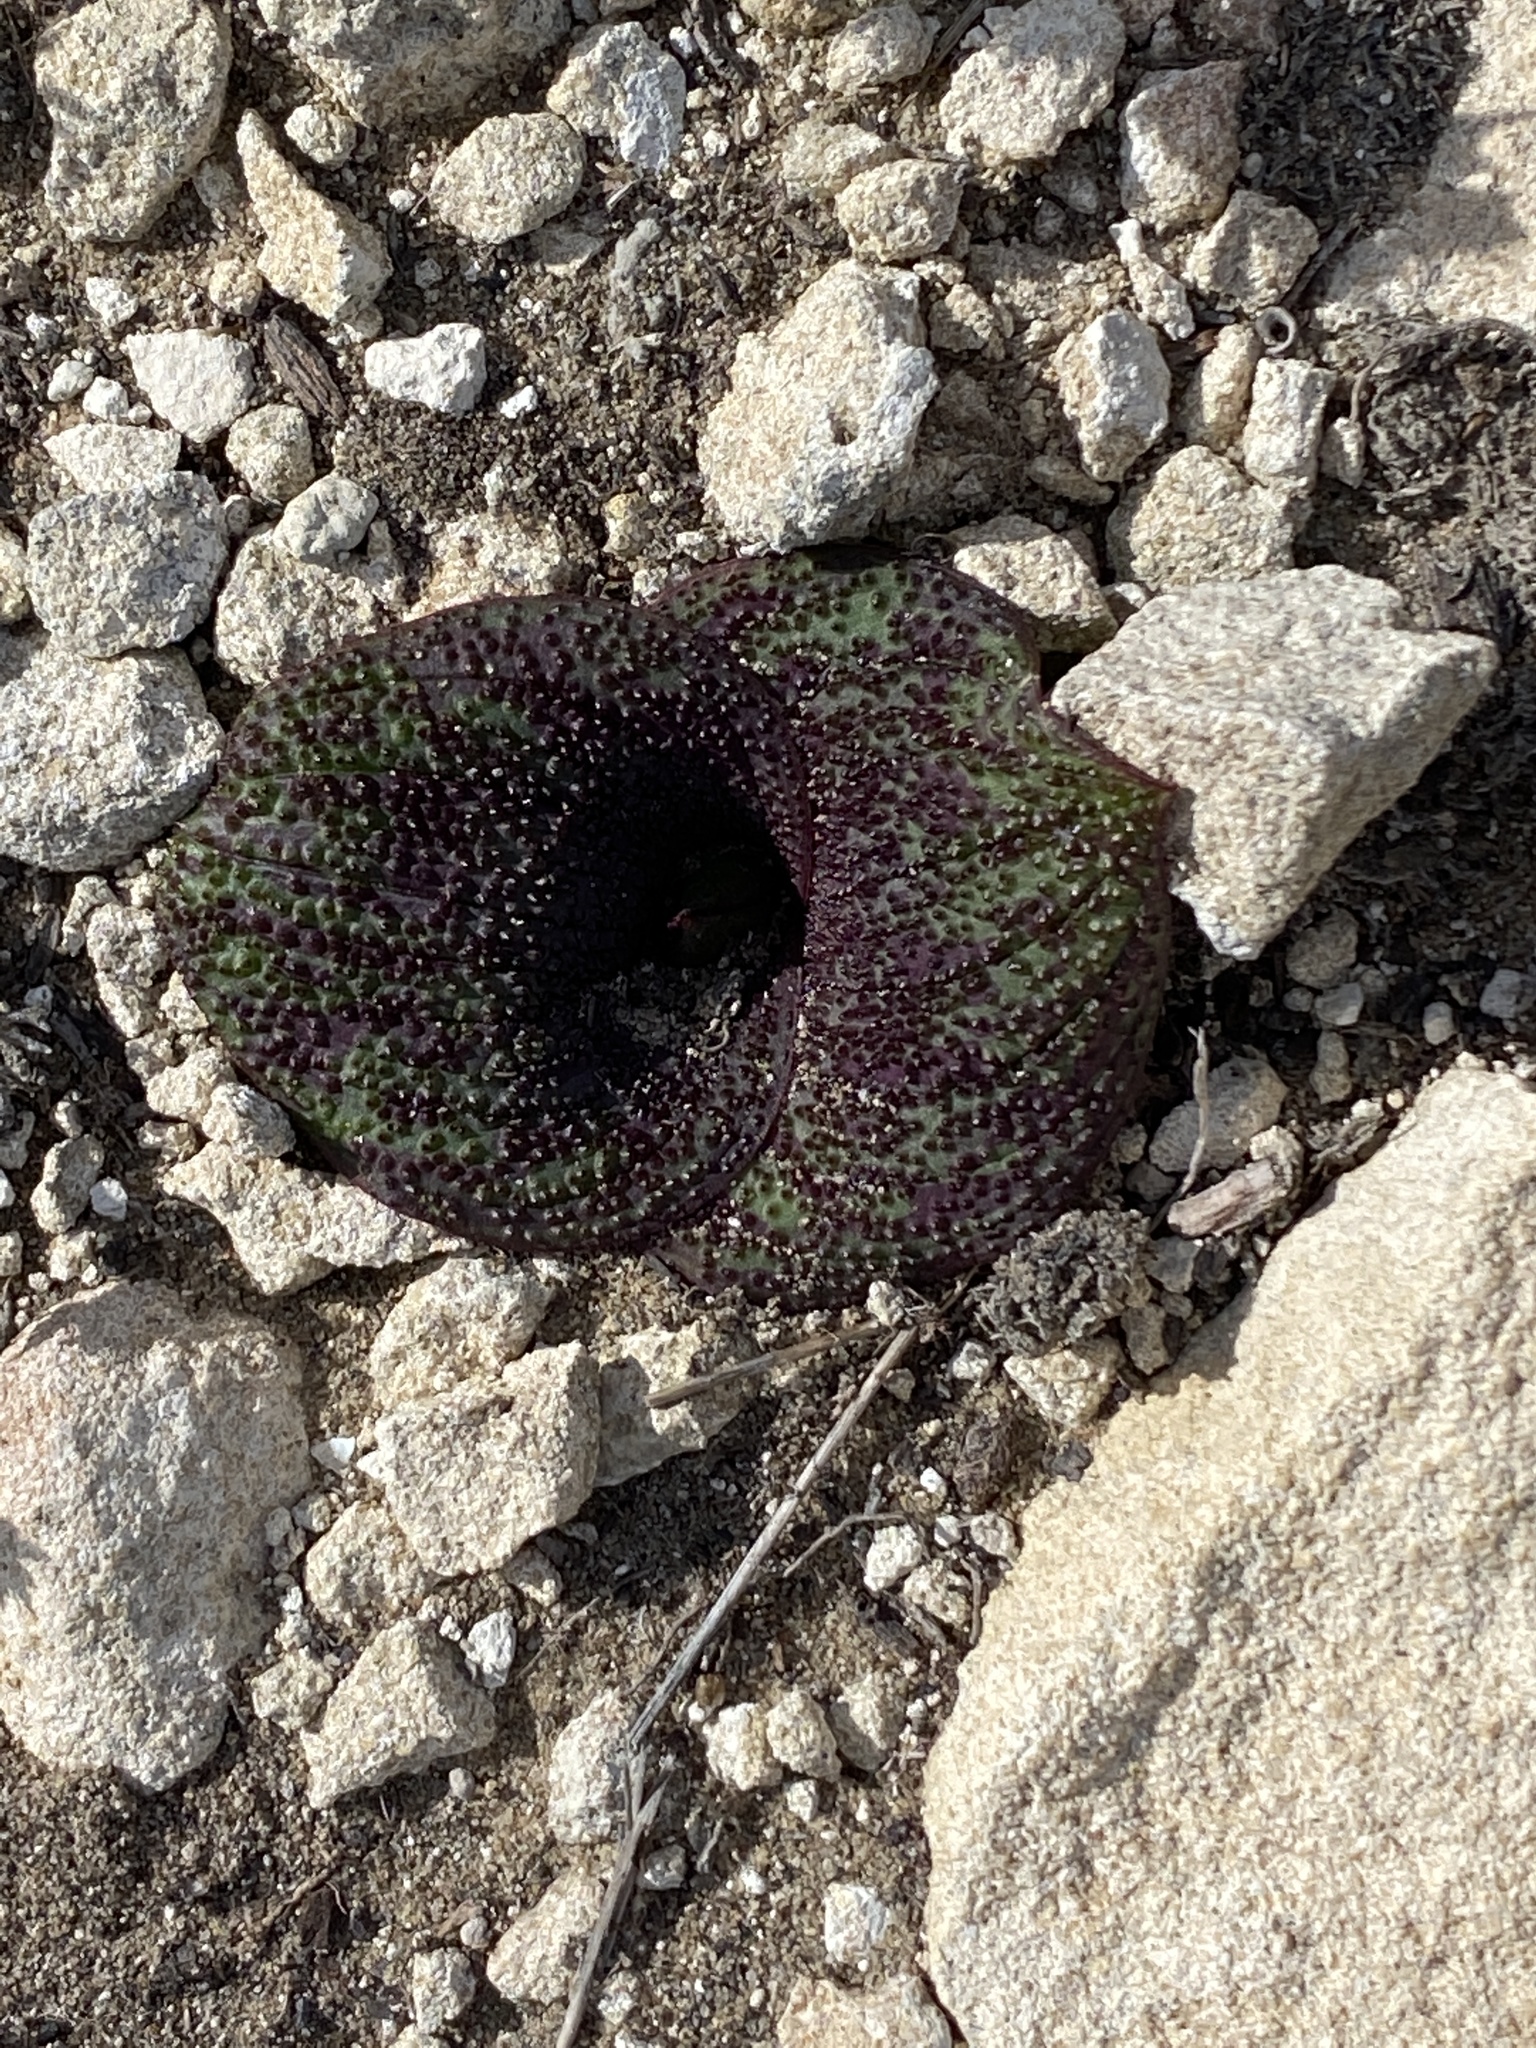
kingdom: Plantae
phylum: Tracheophyta
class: Liliopsida
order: Asparagales
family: Asparagaceae
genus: Massonia
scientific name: Massonia longipes
